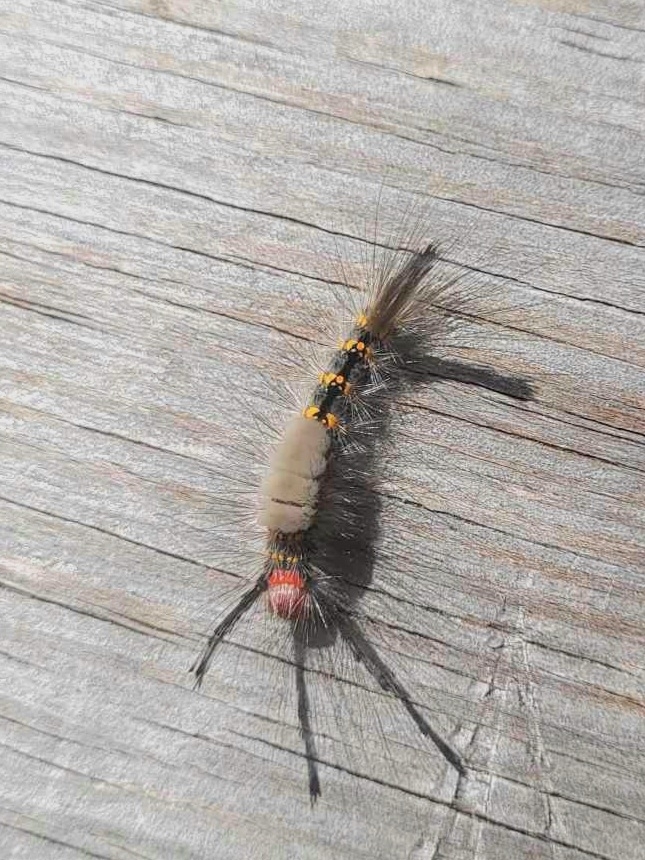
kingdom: Animalia
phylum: Arthropoda
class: Insecta
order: Lepidoptera
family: Erebidae
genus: Orgyia
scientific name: Orgyia detrita
